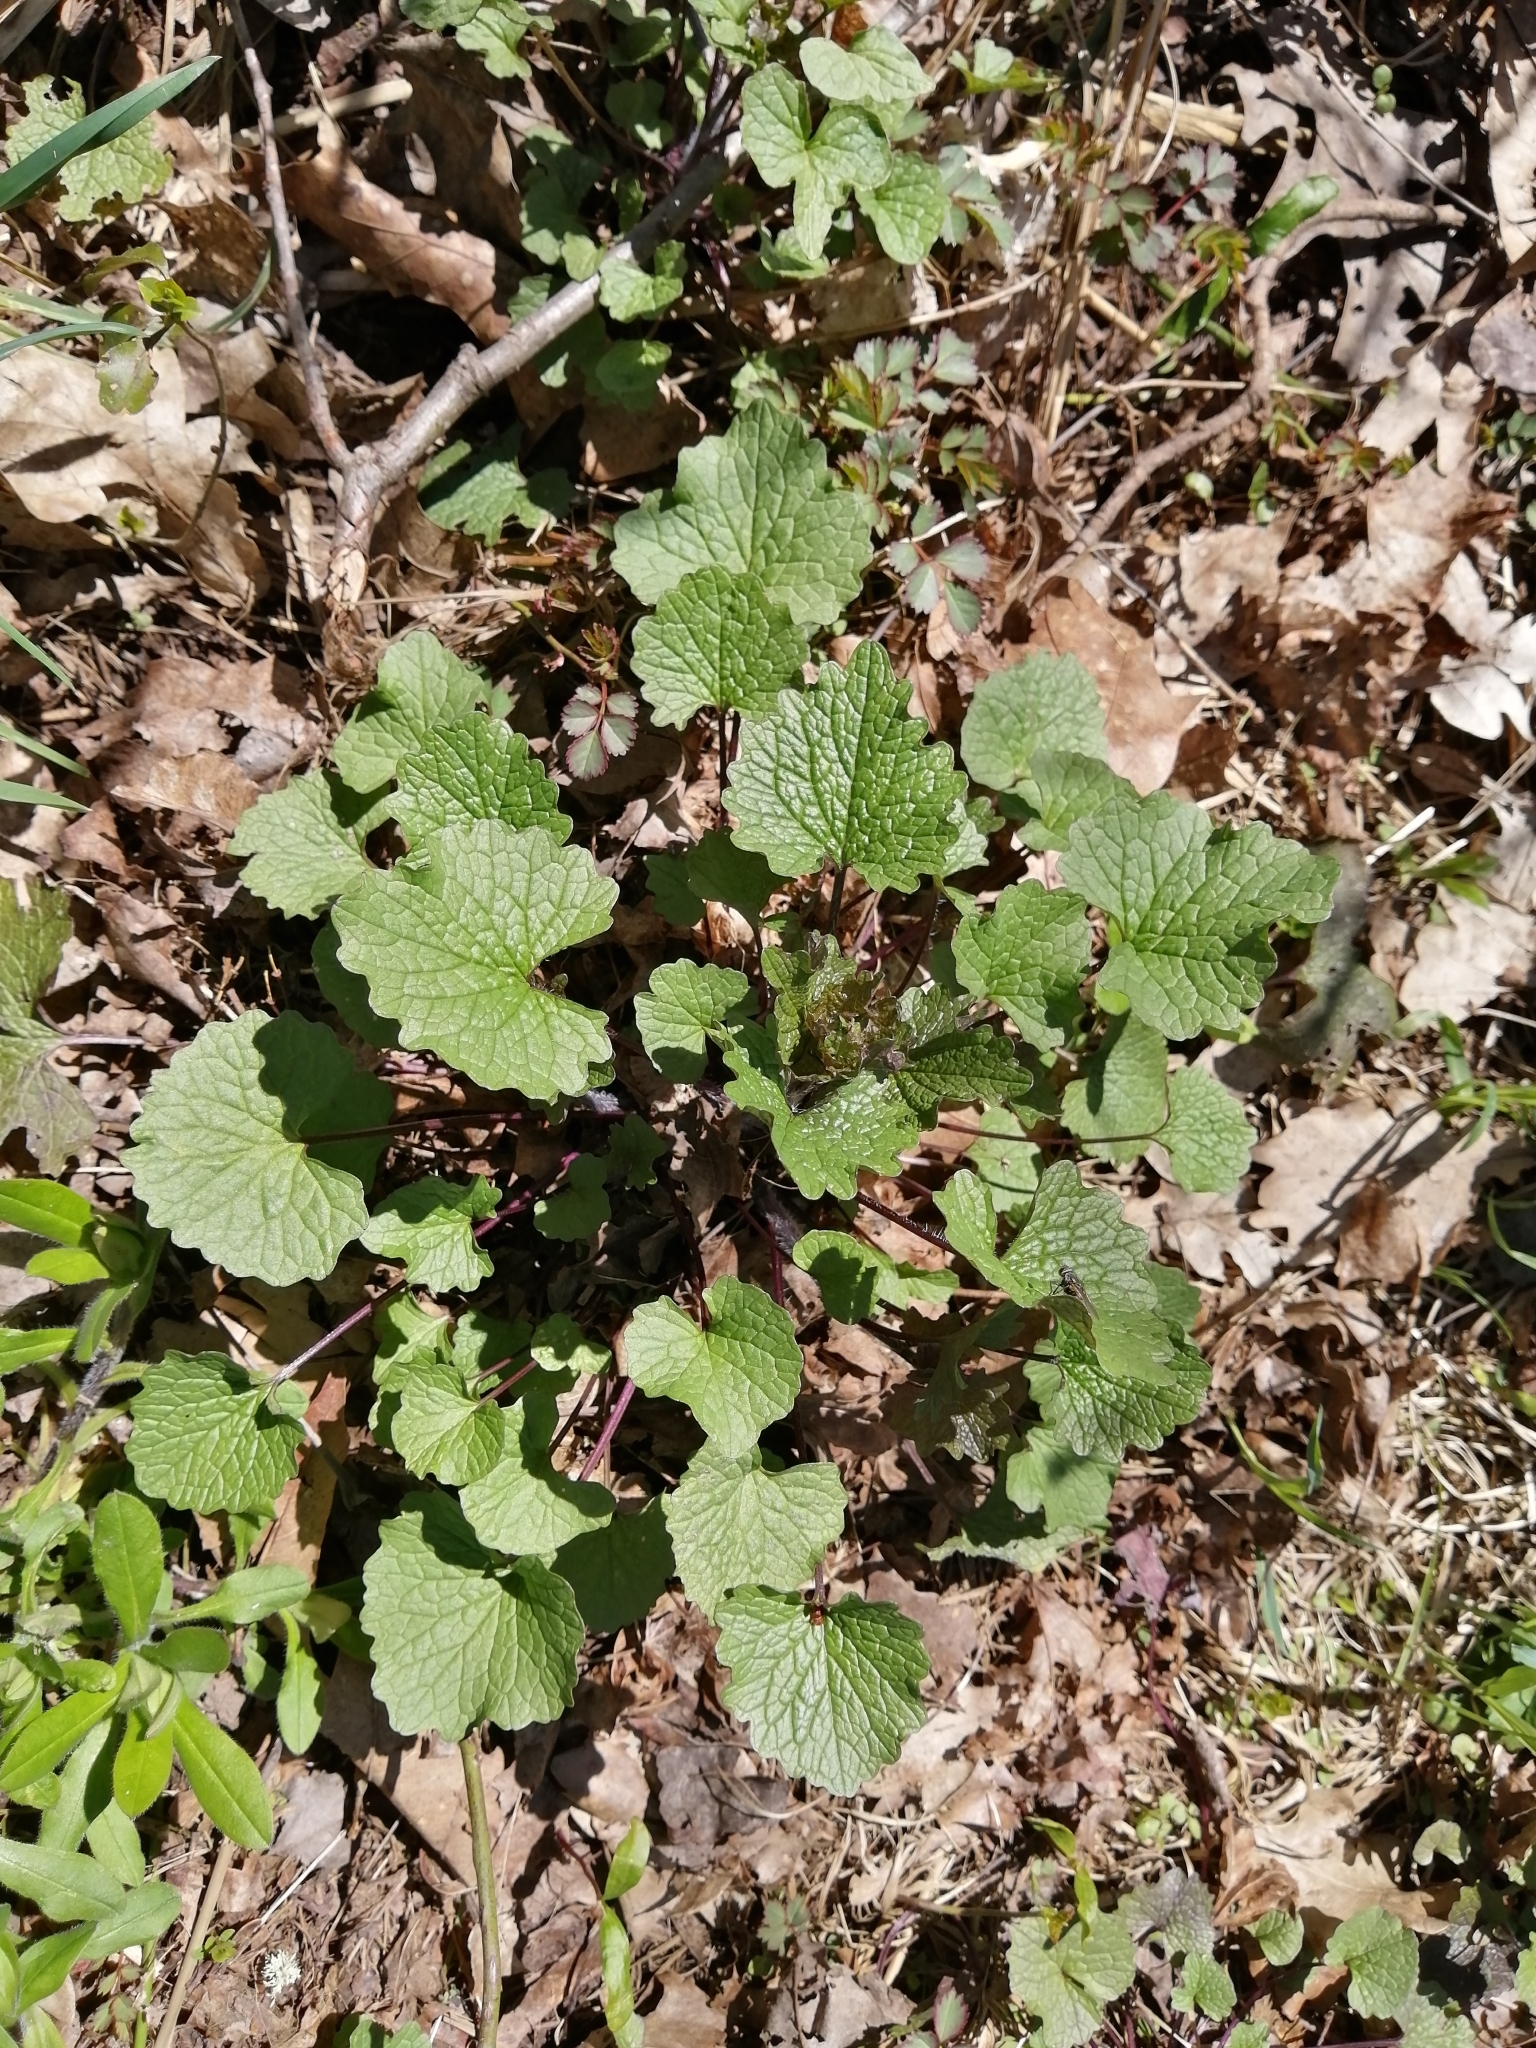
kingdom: Plantae
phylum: Tracheophyta
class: Magnoliopsida
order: Brassicales
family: Brassicaceae
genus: Alliaria
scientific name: Alliaria petiolata
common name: Garlic mustard
